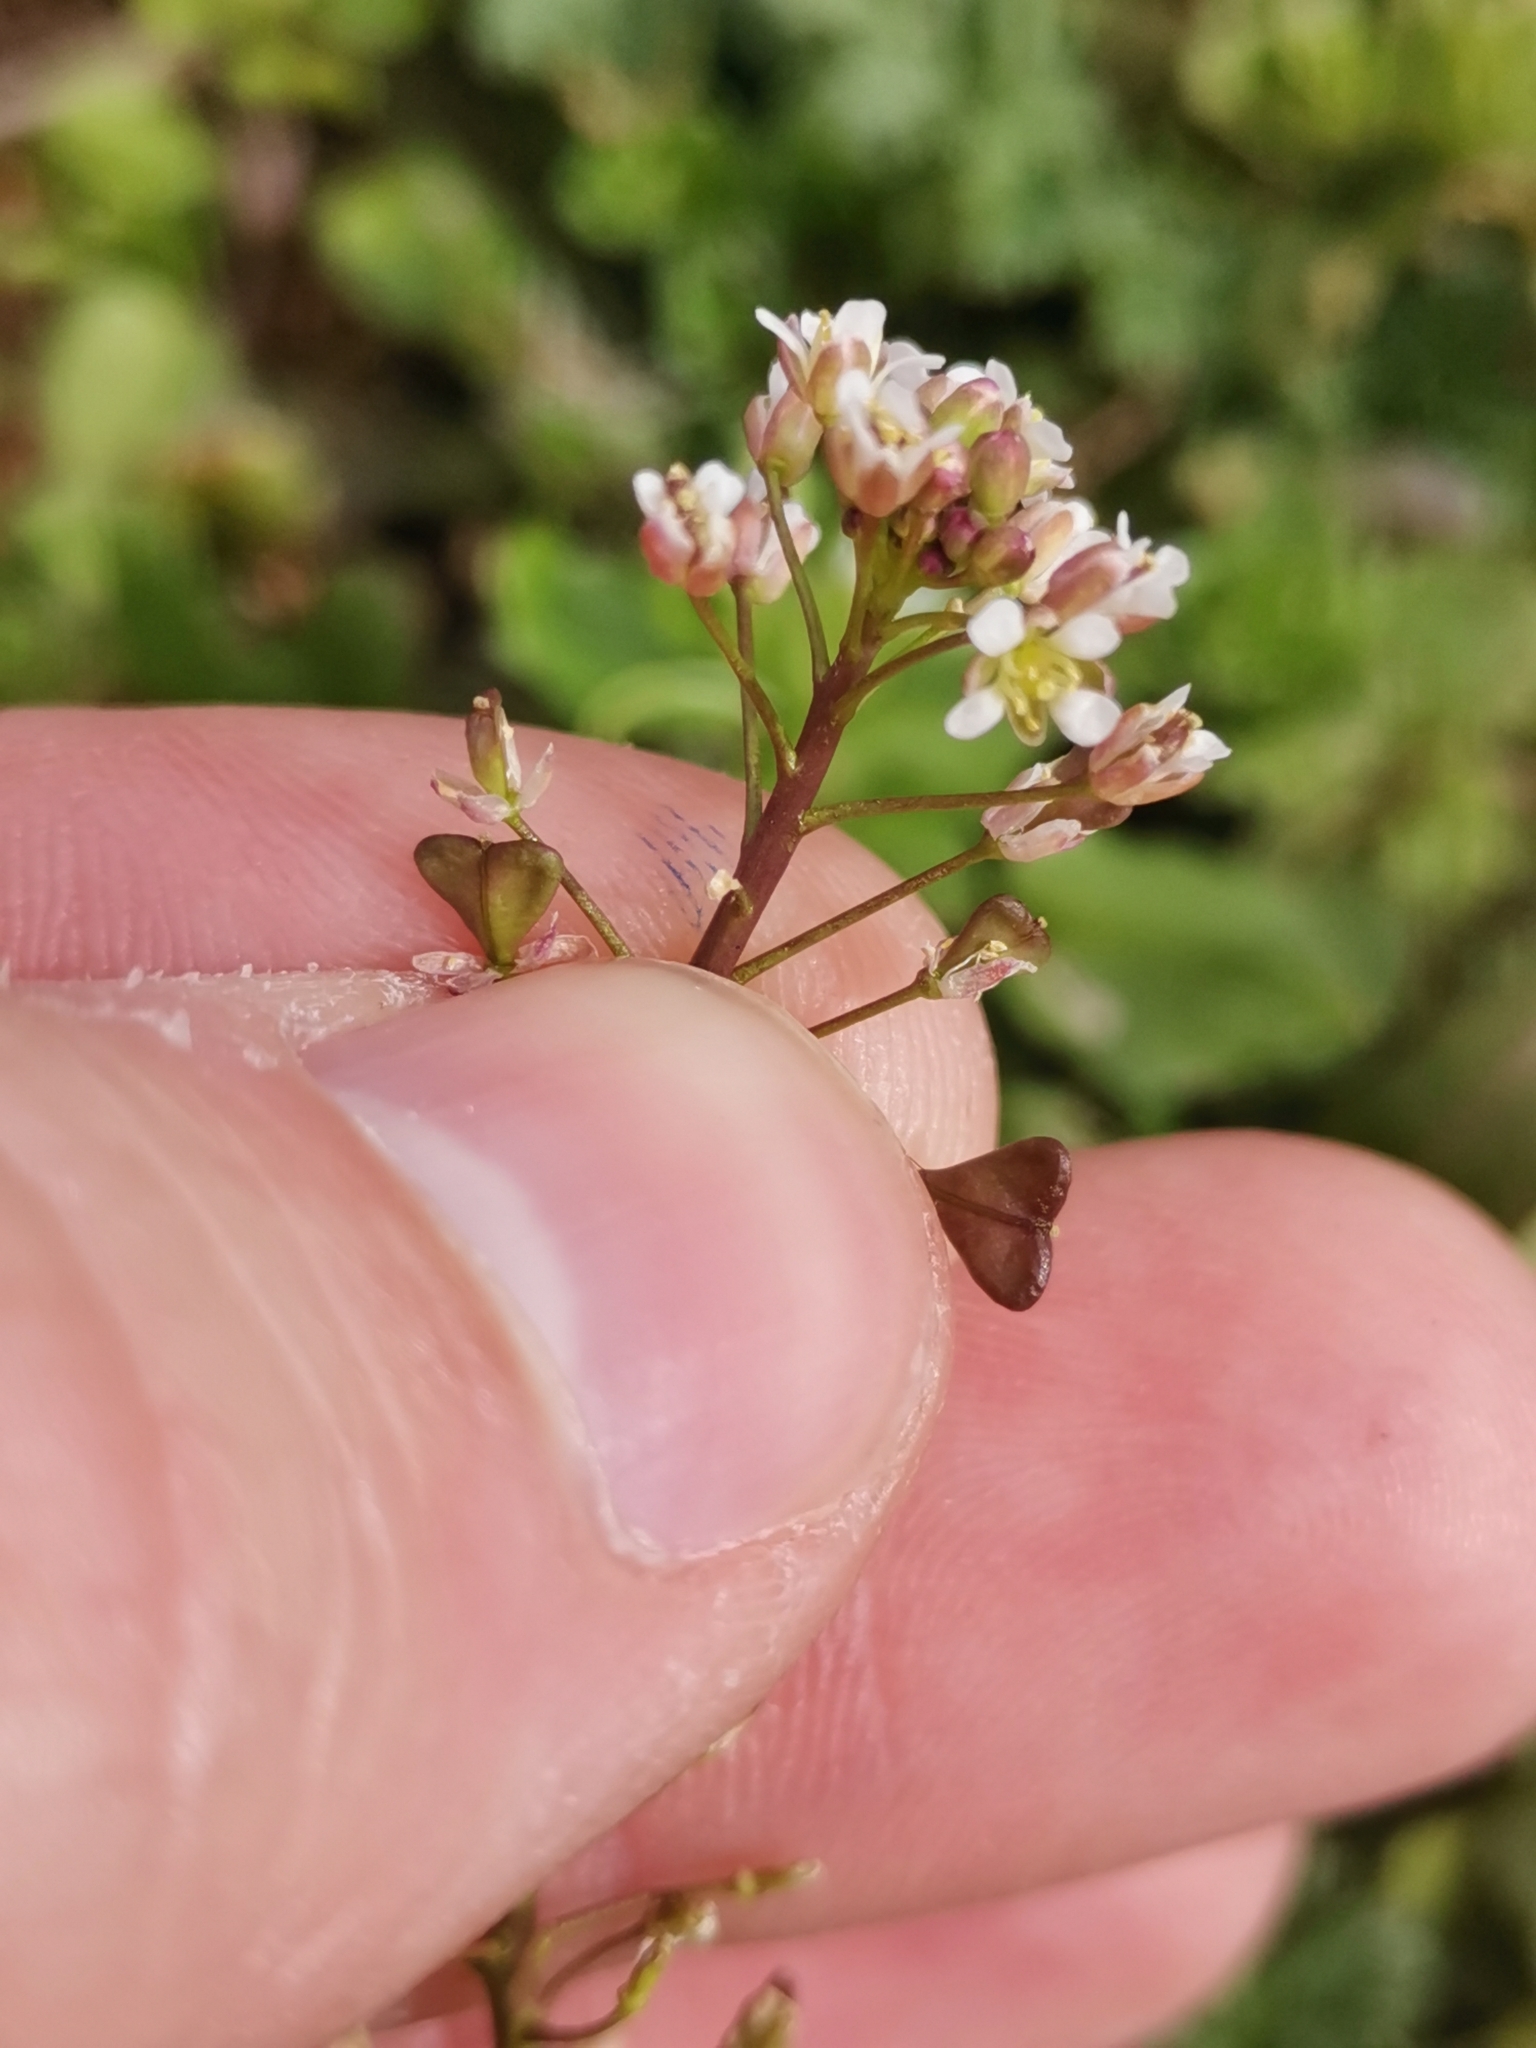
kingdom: Plantae
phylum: Tracheophyta
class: Magnoliopsida
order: Brassicales
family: Brassicaceae
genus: Capsella
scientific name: Capsella rubella
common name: Pink shepherd's-purse
